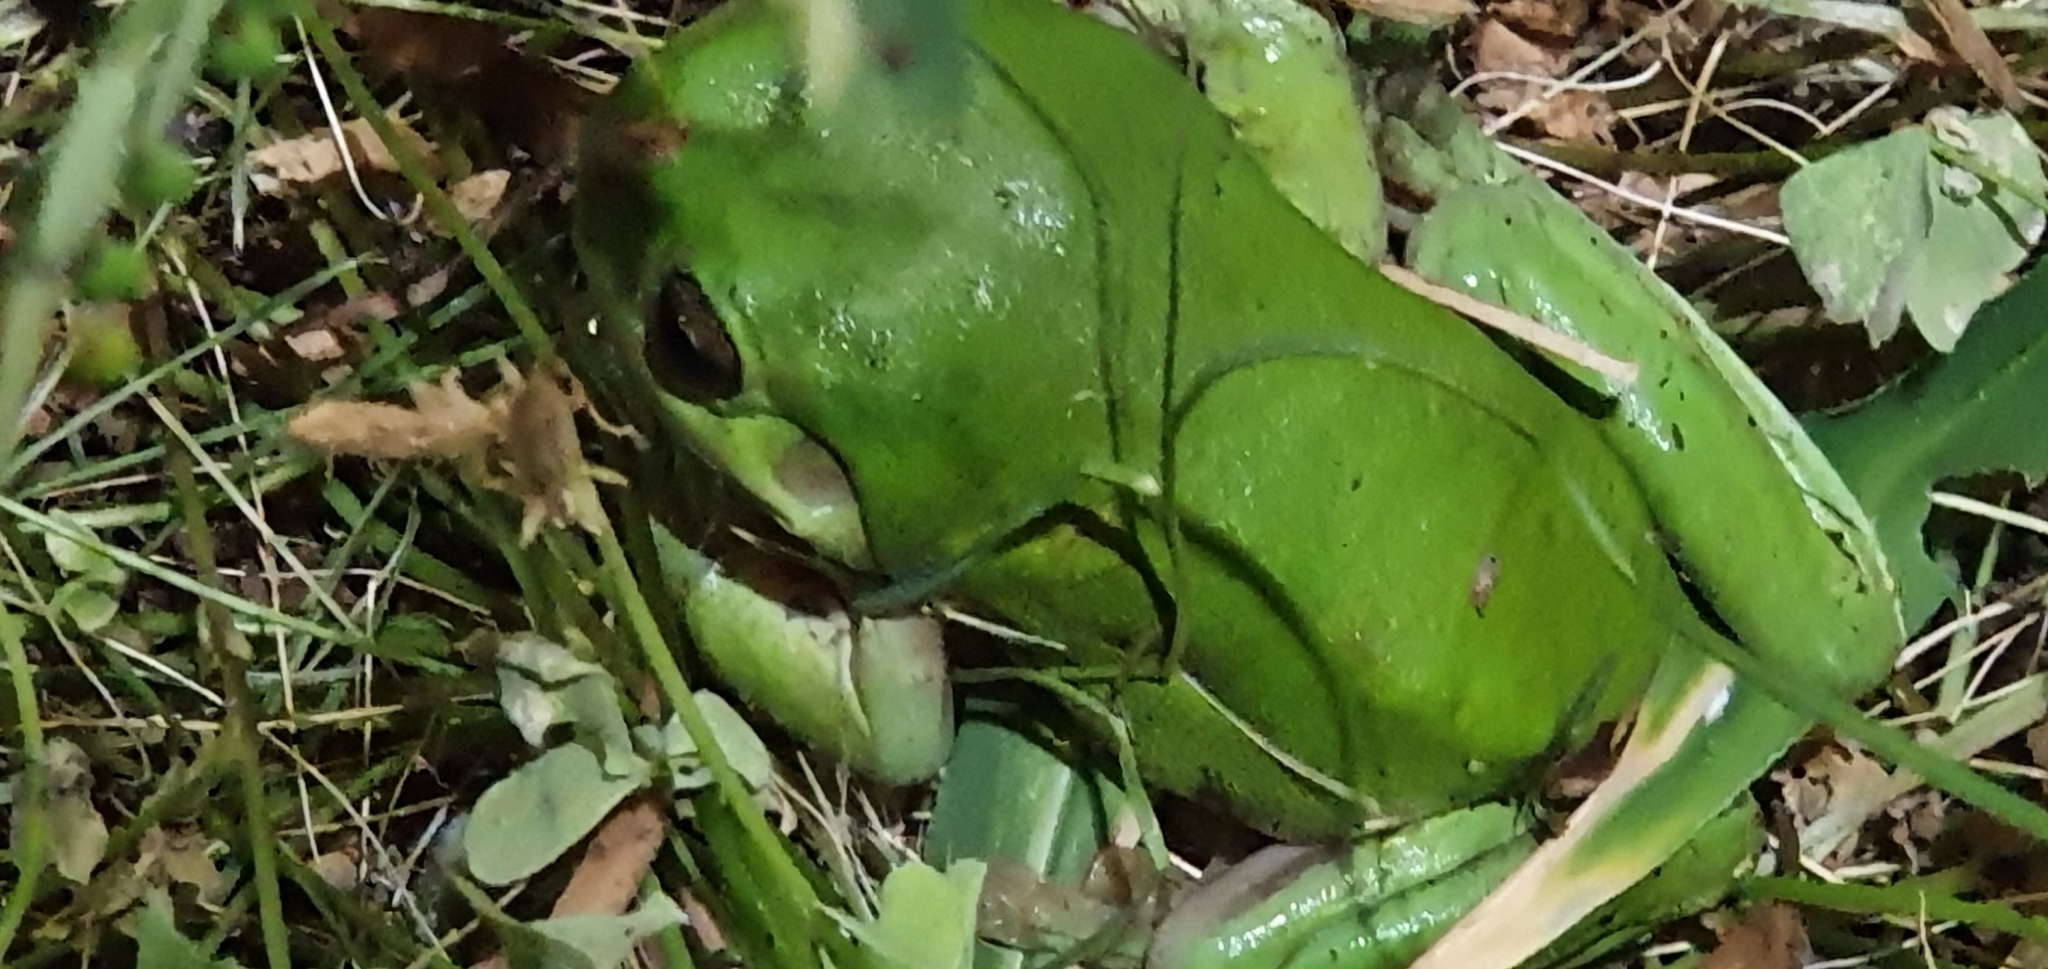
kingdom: Animalia
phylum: Chordata
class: Amphibia
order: Anura
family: Pelodryadidae
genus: Ranoidea
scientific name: Ranoidea caerulea
